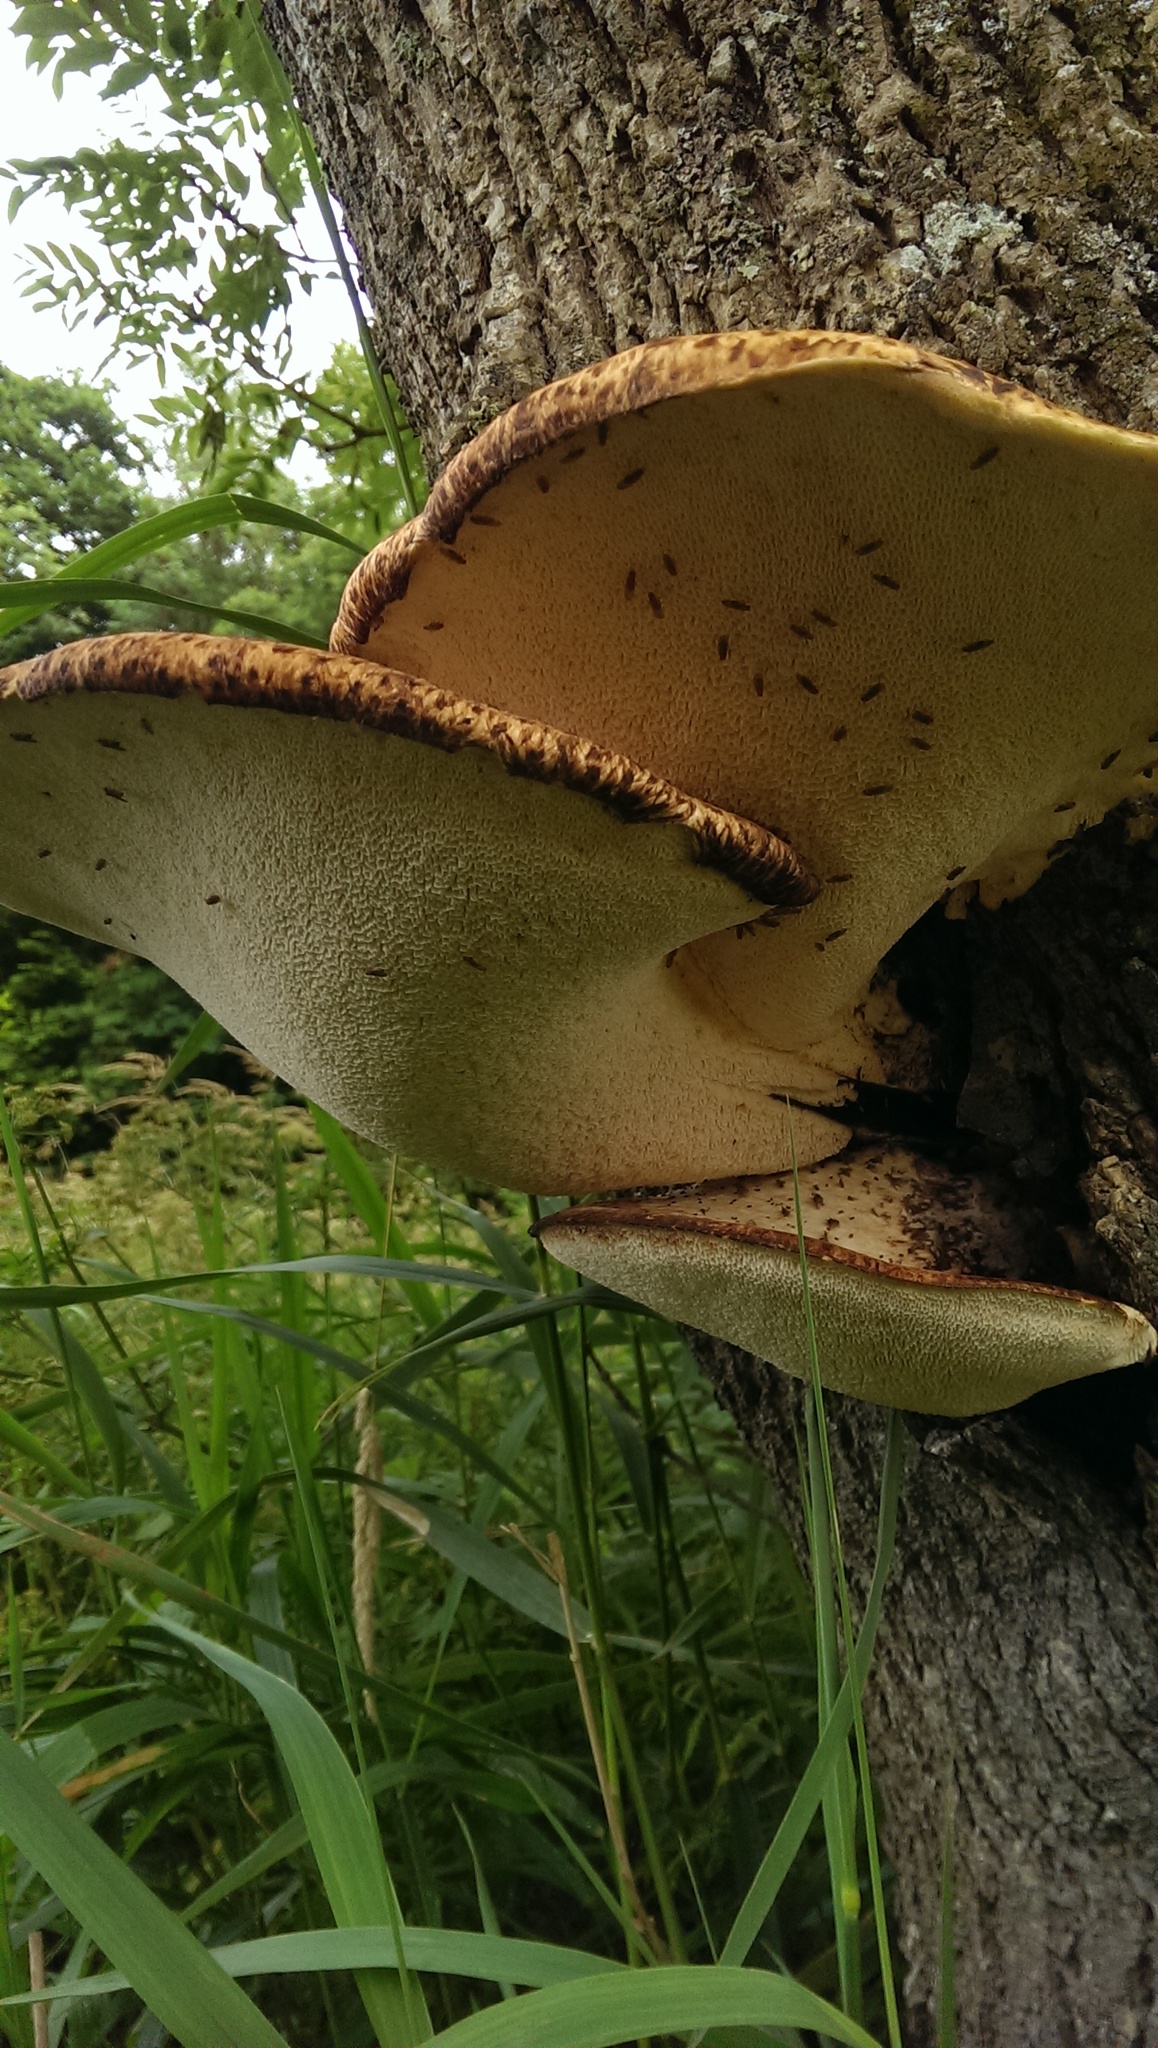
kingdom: Fungi
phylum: Basidiomycota
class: Agaricomycetes
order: Polyporales
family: Polyporaceae
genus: Cerioporus
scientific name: Cerioporus squamosus
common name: Dryad's saddle
